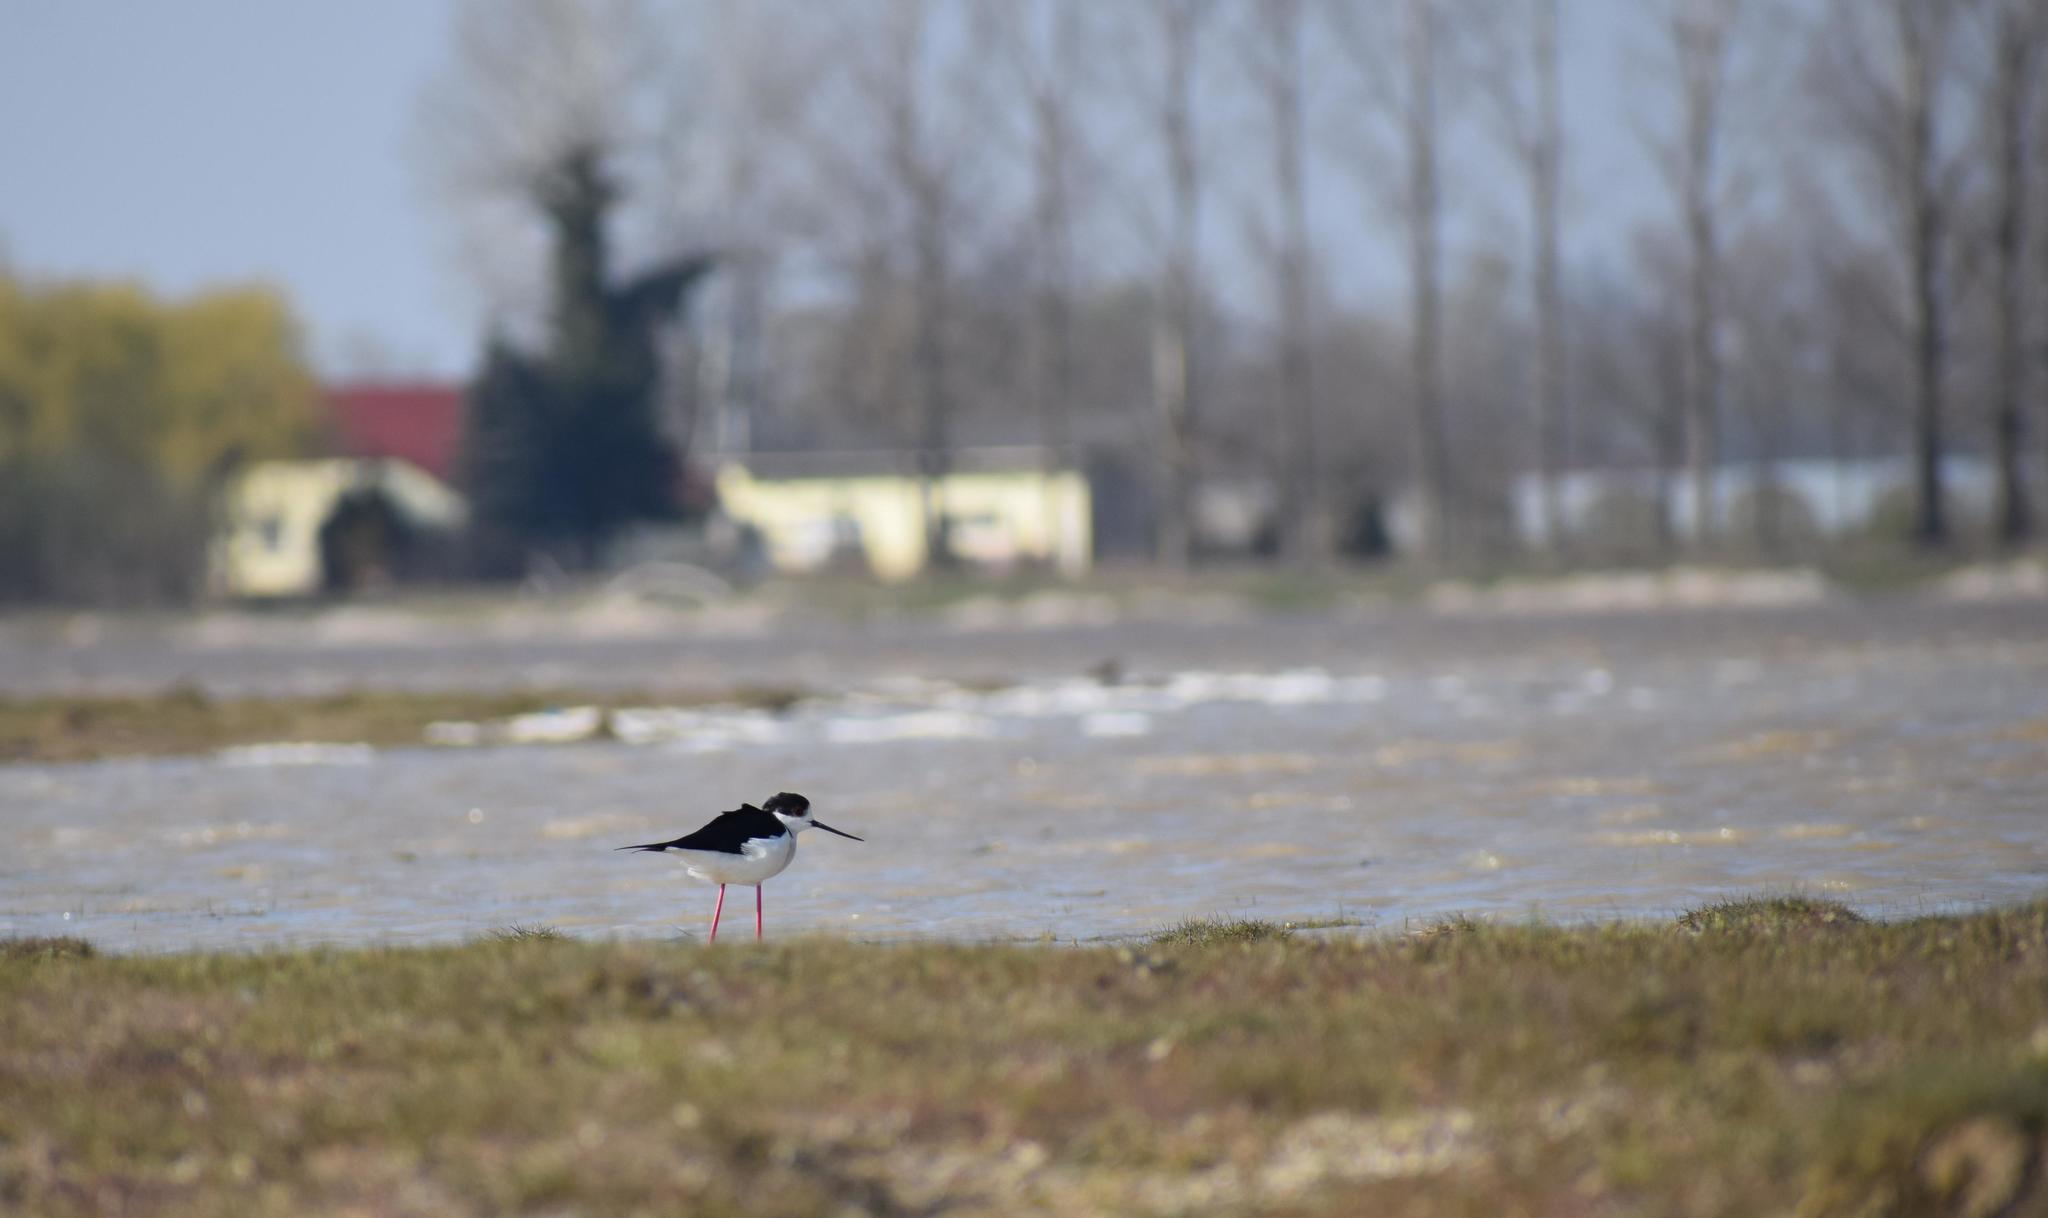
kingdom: Animalia
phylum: Chordata
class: Aves
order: Charadriiformes
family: Recurvirostridae
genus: Himantopus
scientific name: Himantopus himantopus
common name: Black-winged stilt
